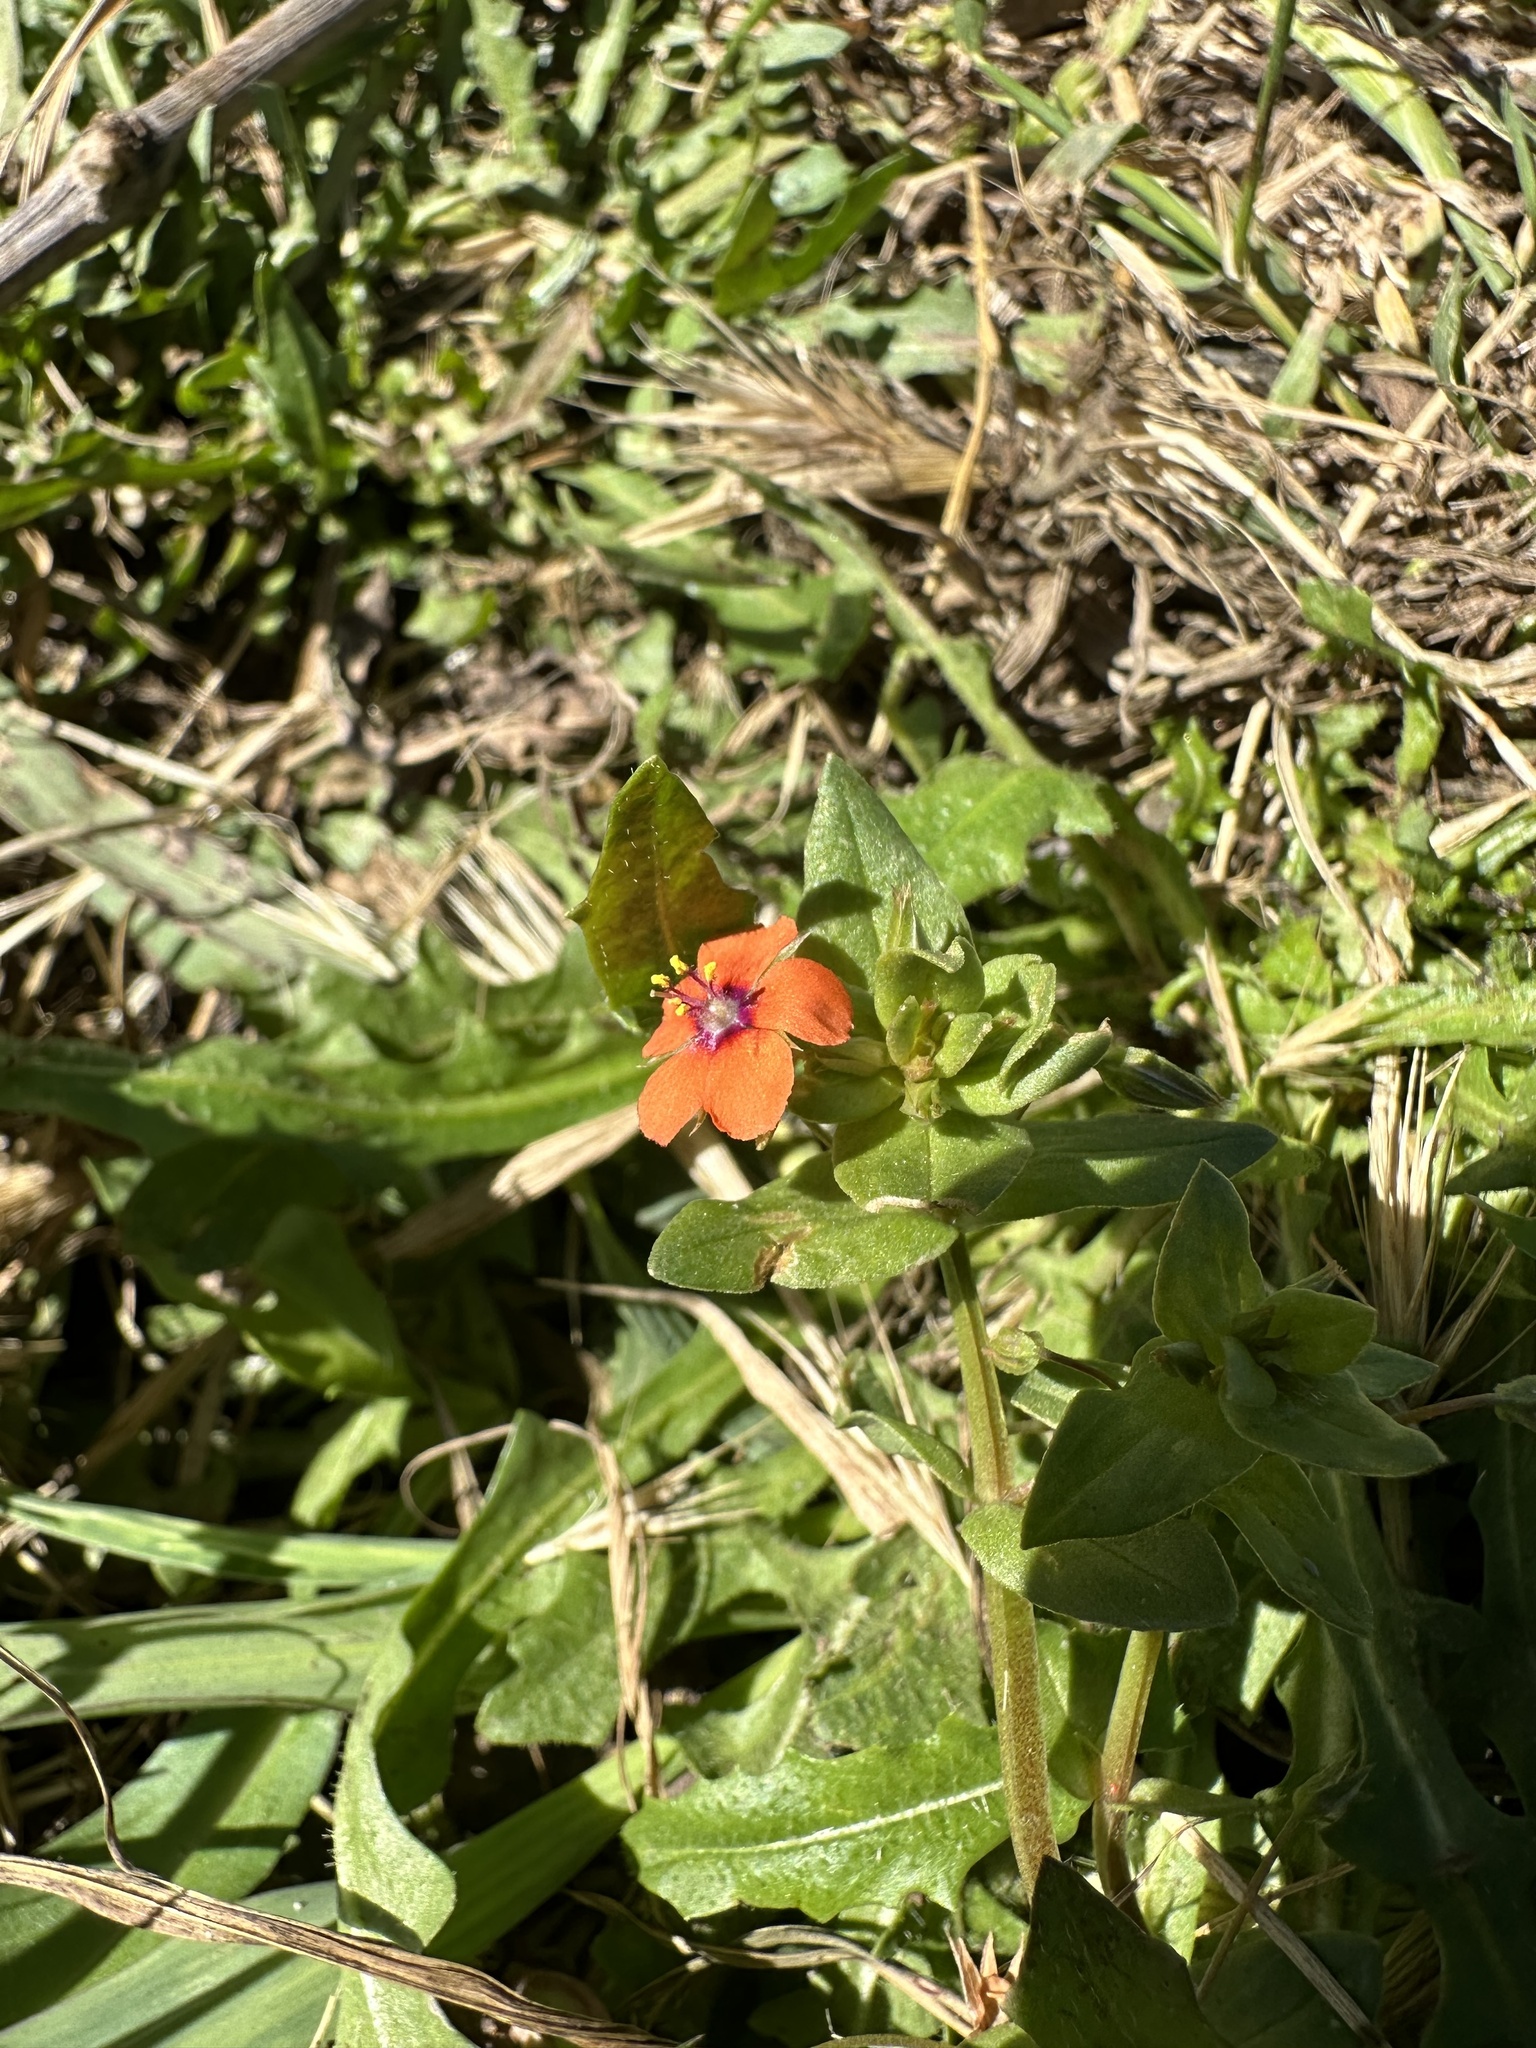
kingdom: Plantae
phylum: Tracheophyta
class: Magnoliopsida
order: Ericales
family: Primulaceae
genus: Lysimachia
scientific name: Lysimachia arvensis
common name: Scarlet pimpernel
